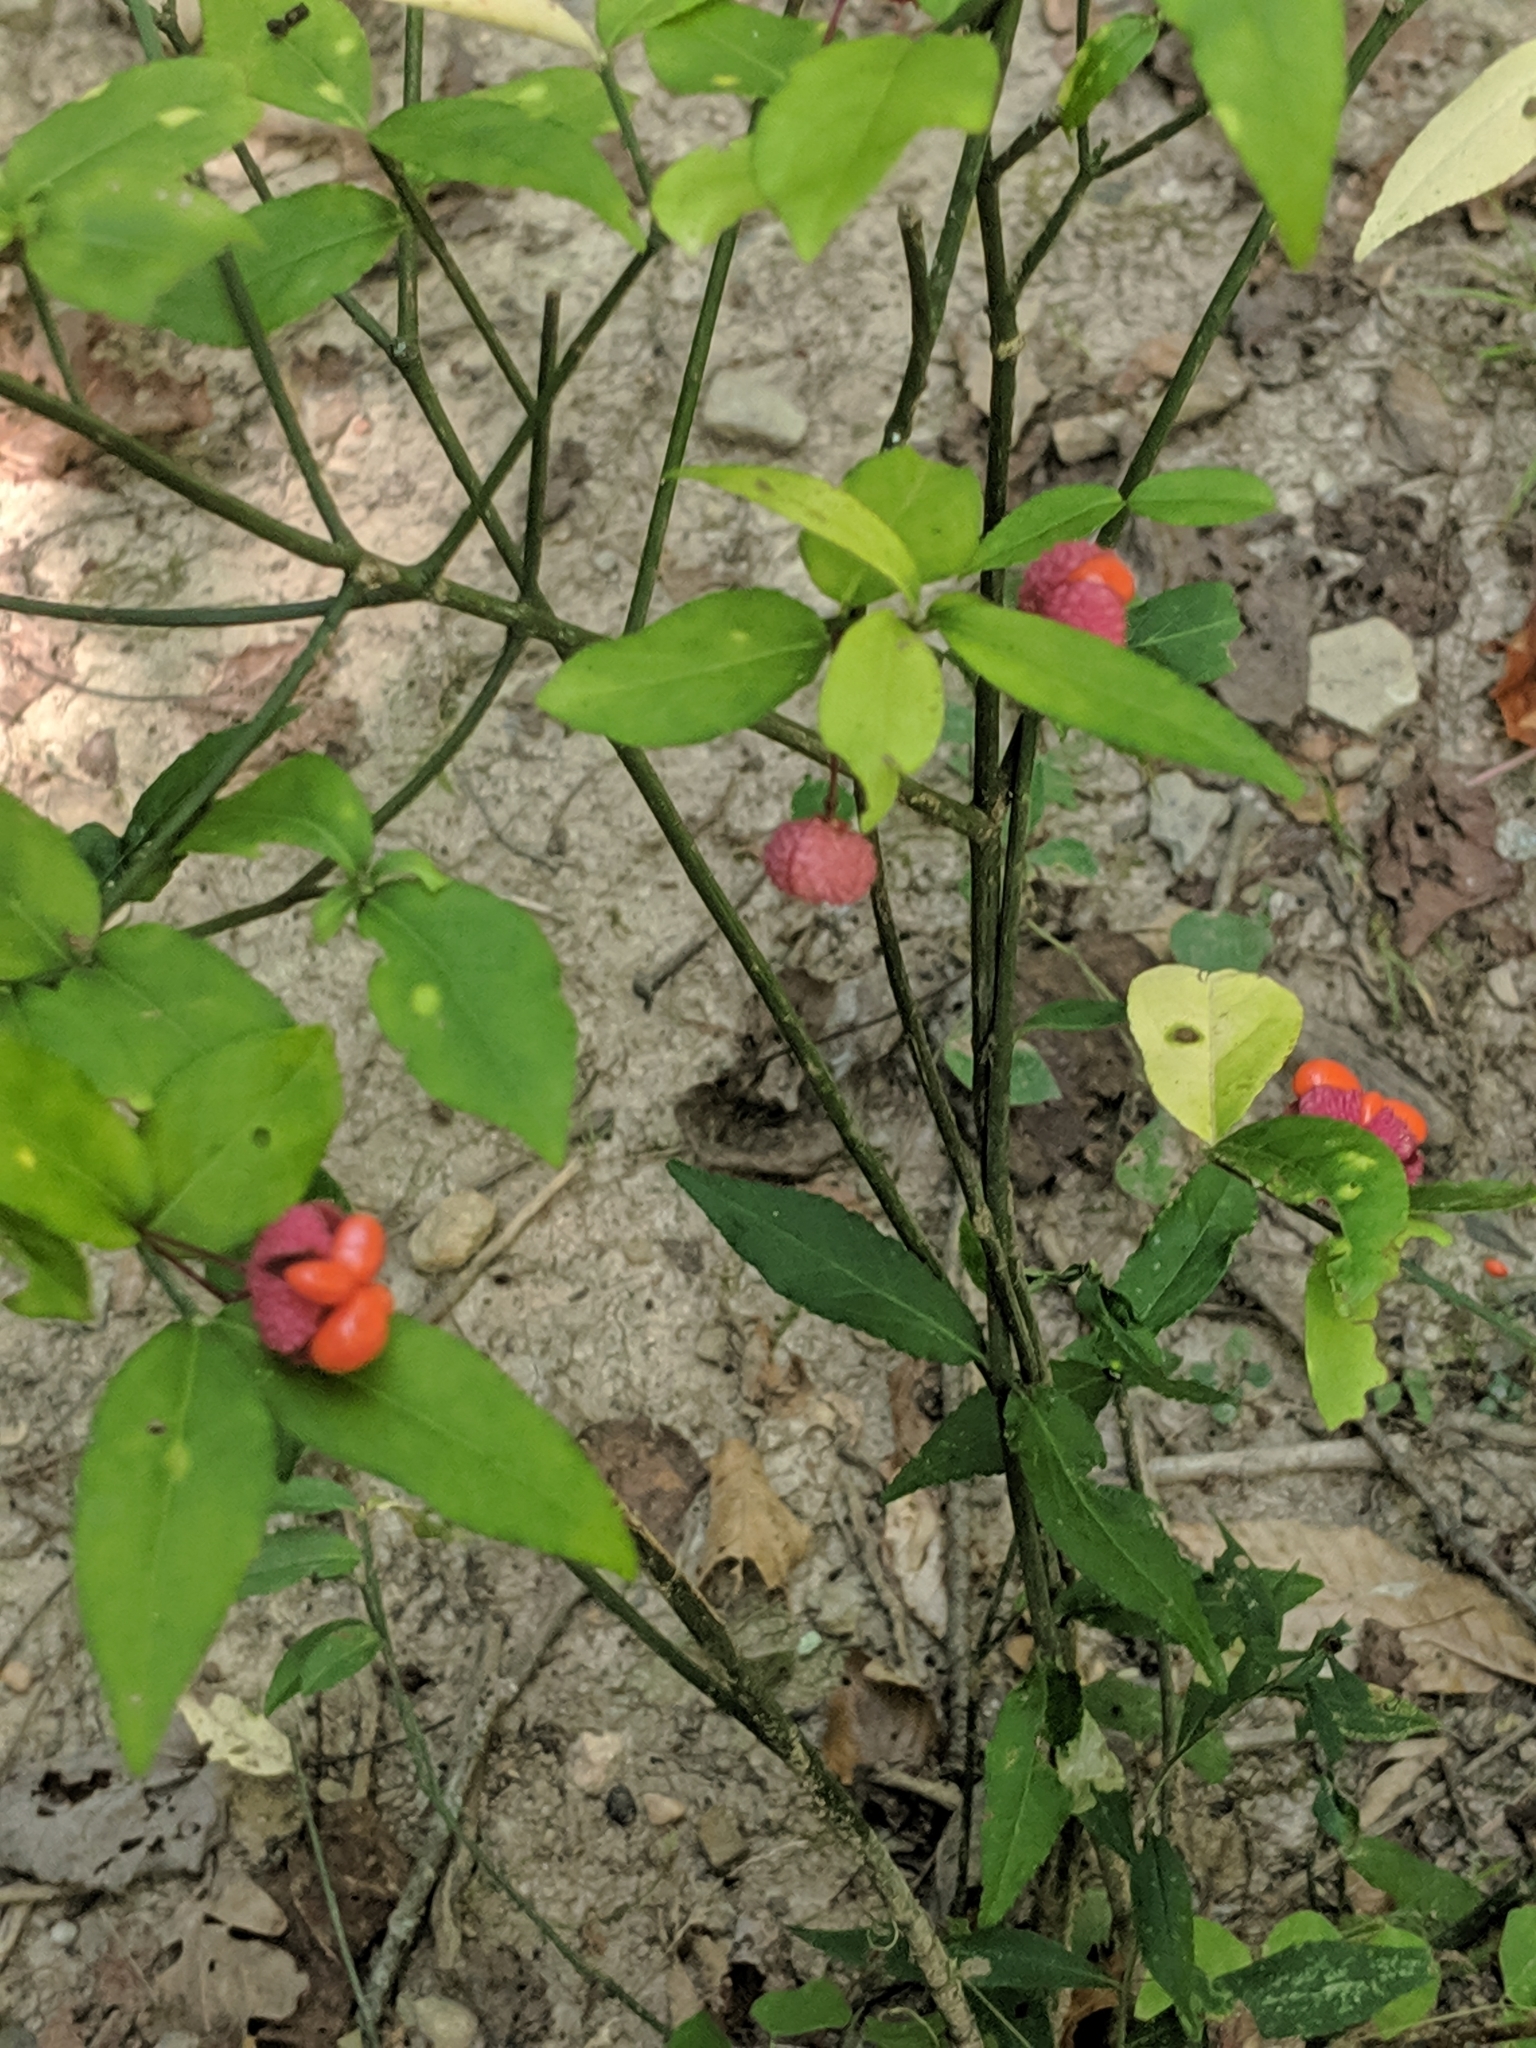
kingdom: Plantae
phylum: Tracheophyta
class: Magnoliopsida
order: Celastrales
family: Celastraceae
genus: Euonymus
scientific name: Euonymus americanus
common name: Bursting-heart
